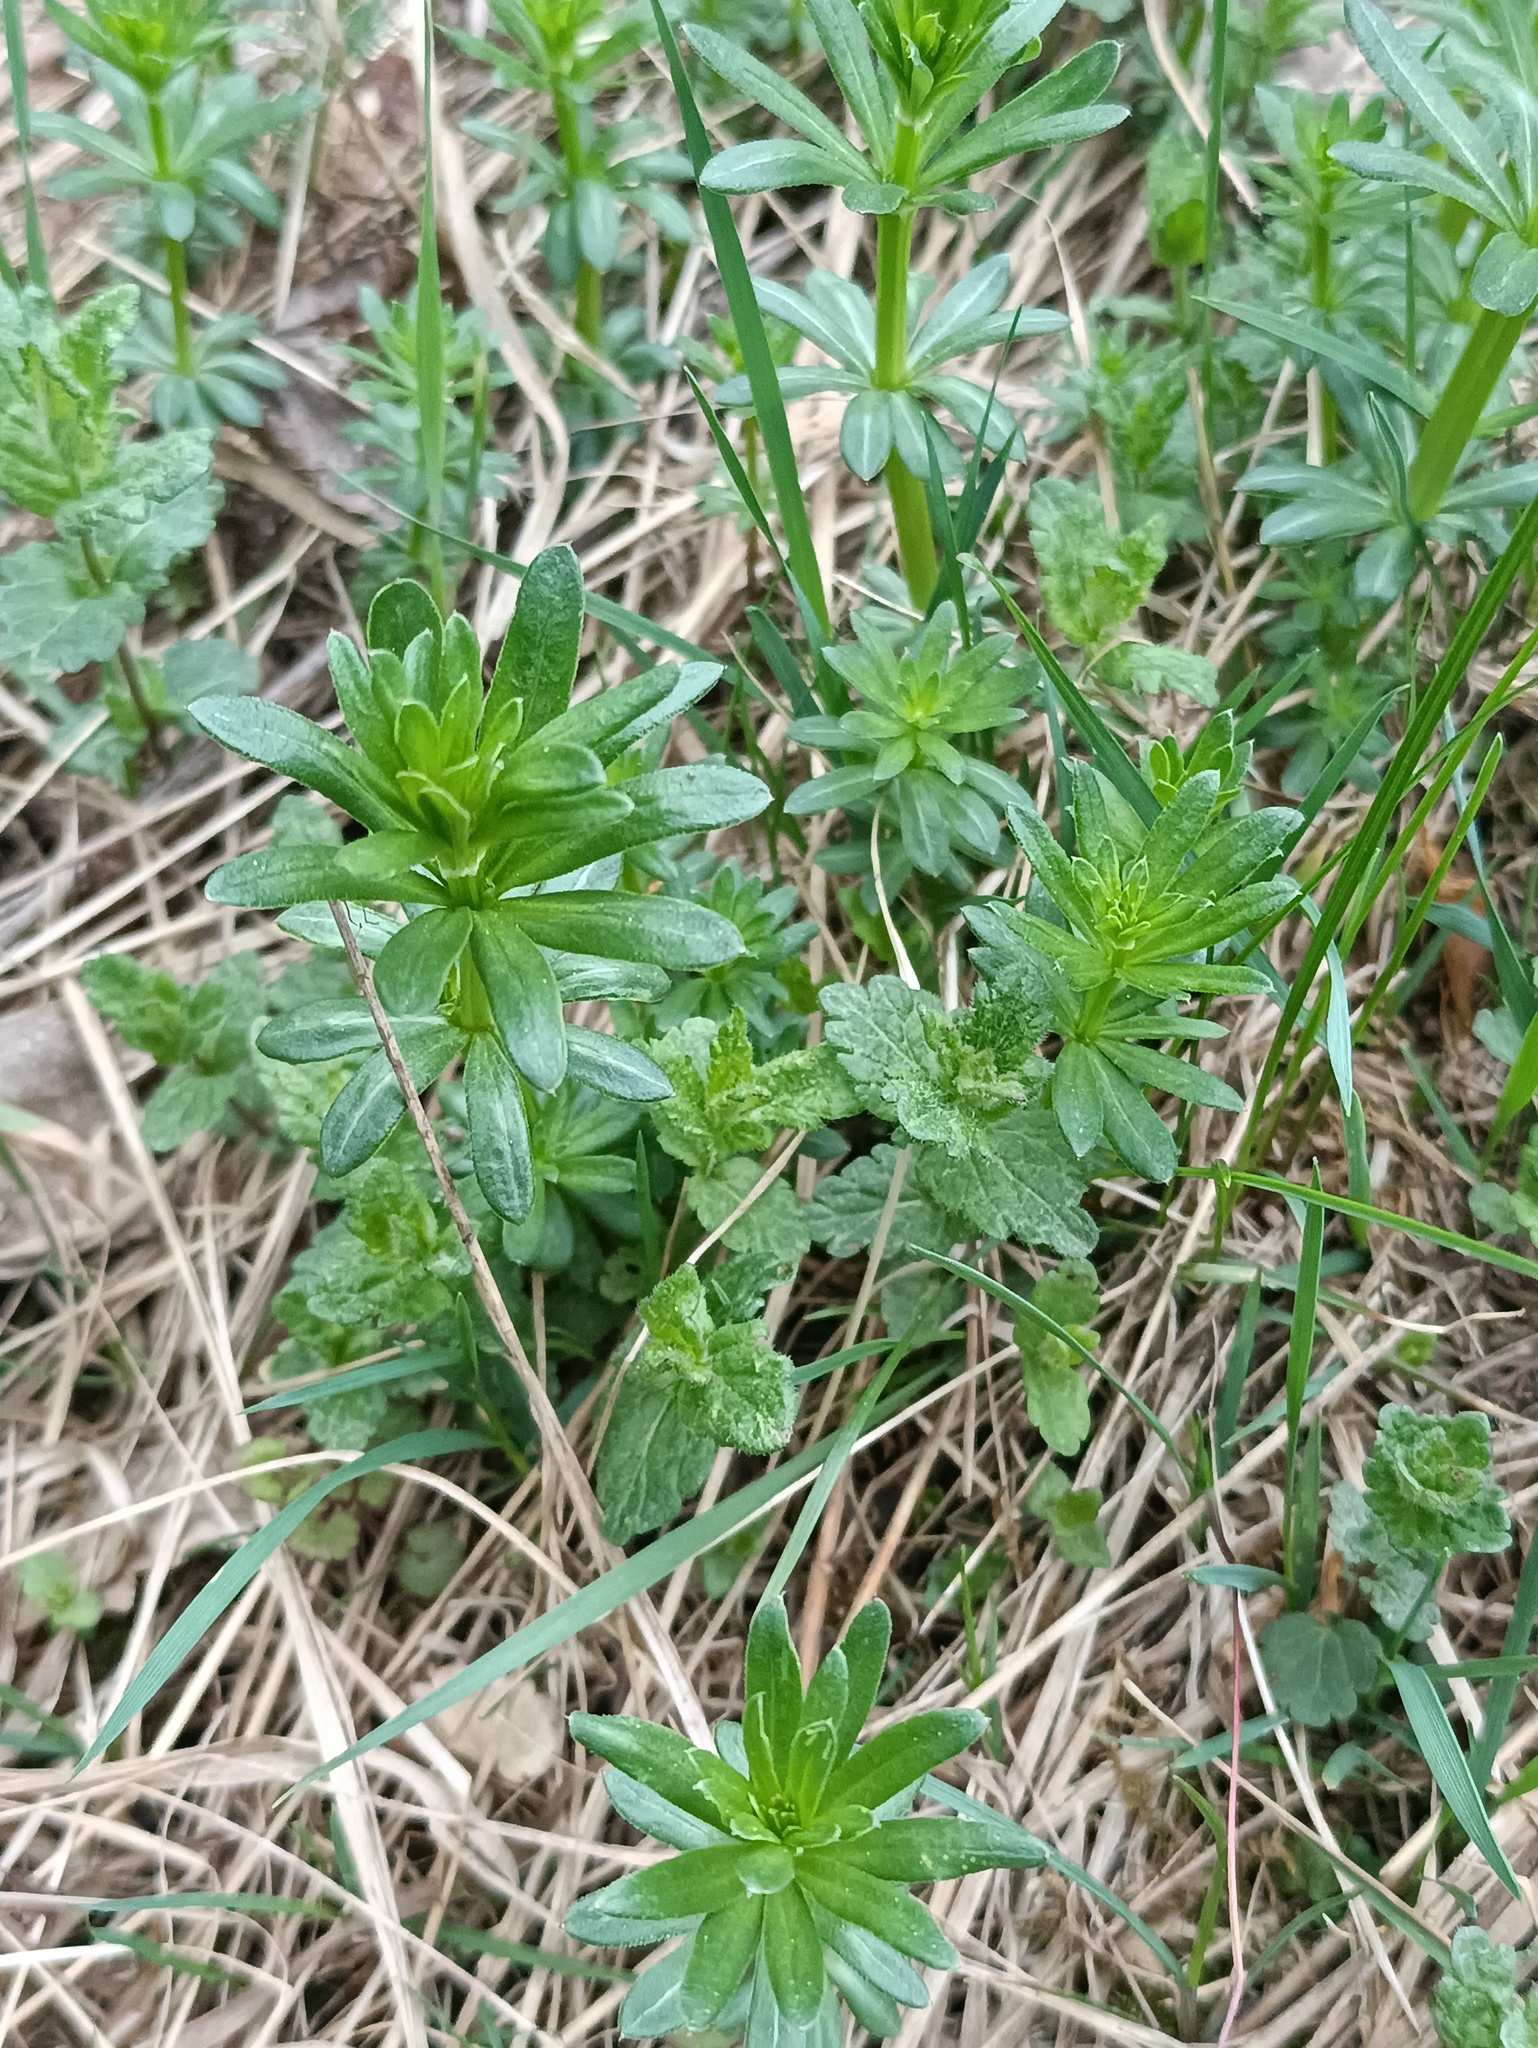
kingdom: Plantae
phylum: Tracheophyta
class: Magnoliopsida
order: Gentianales
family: Rubiaceae
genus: Galium
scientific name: Galium mollugo
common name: Hedge bedstraw
